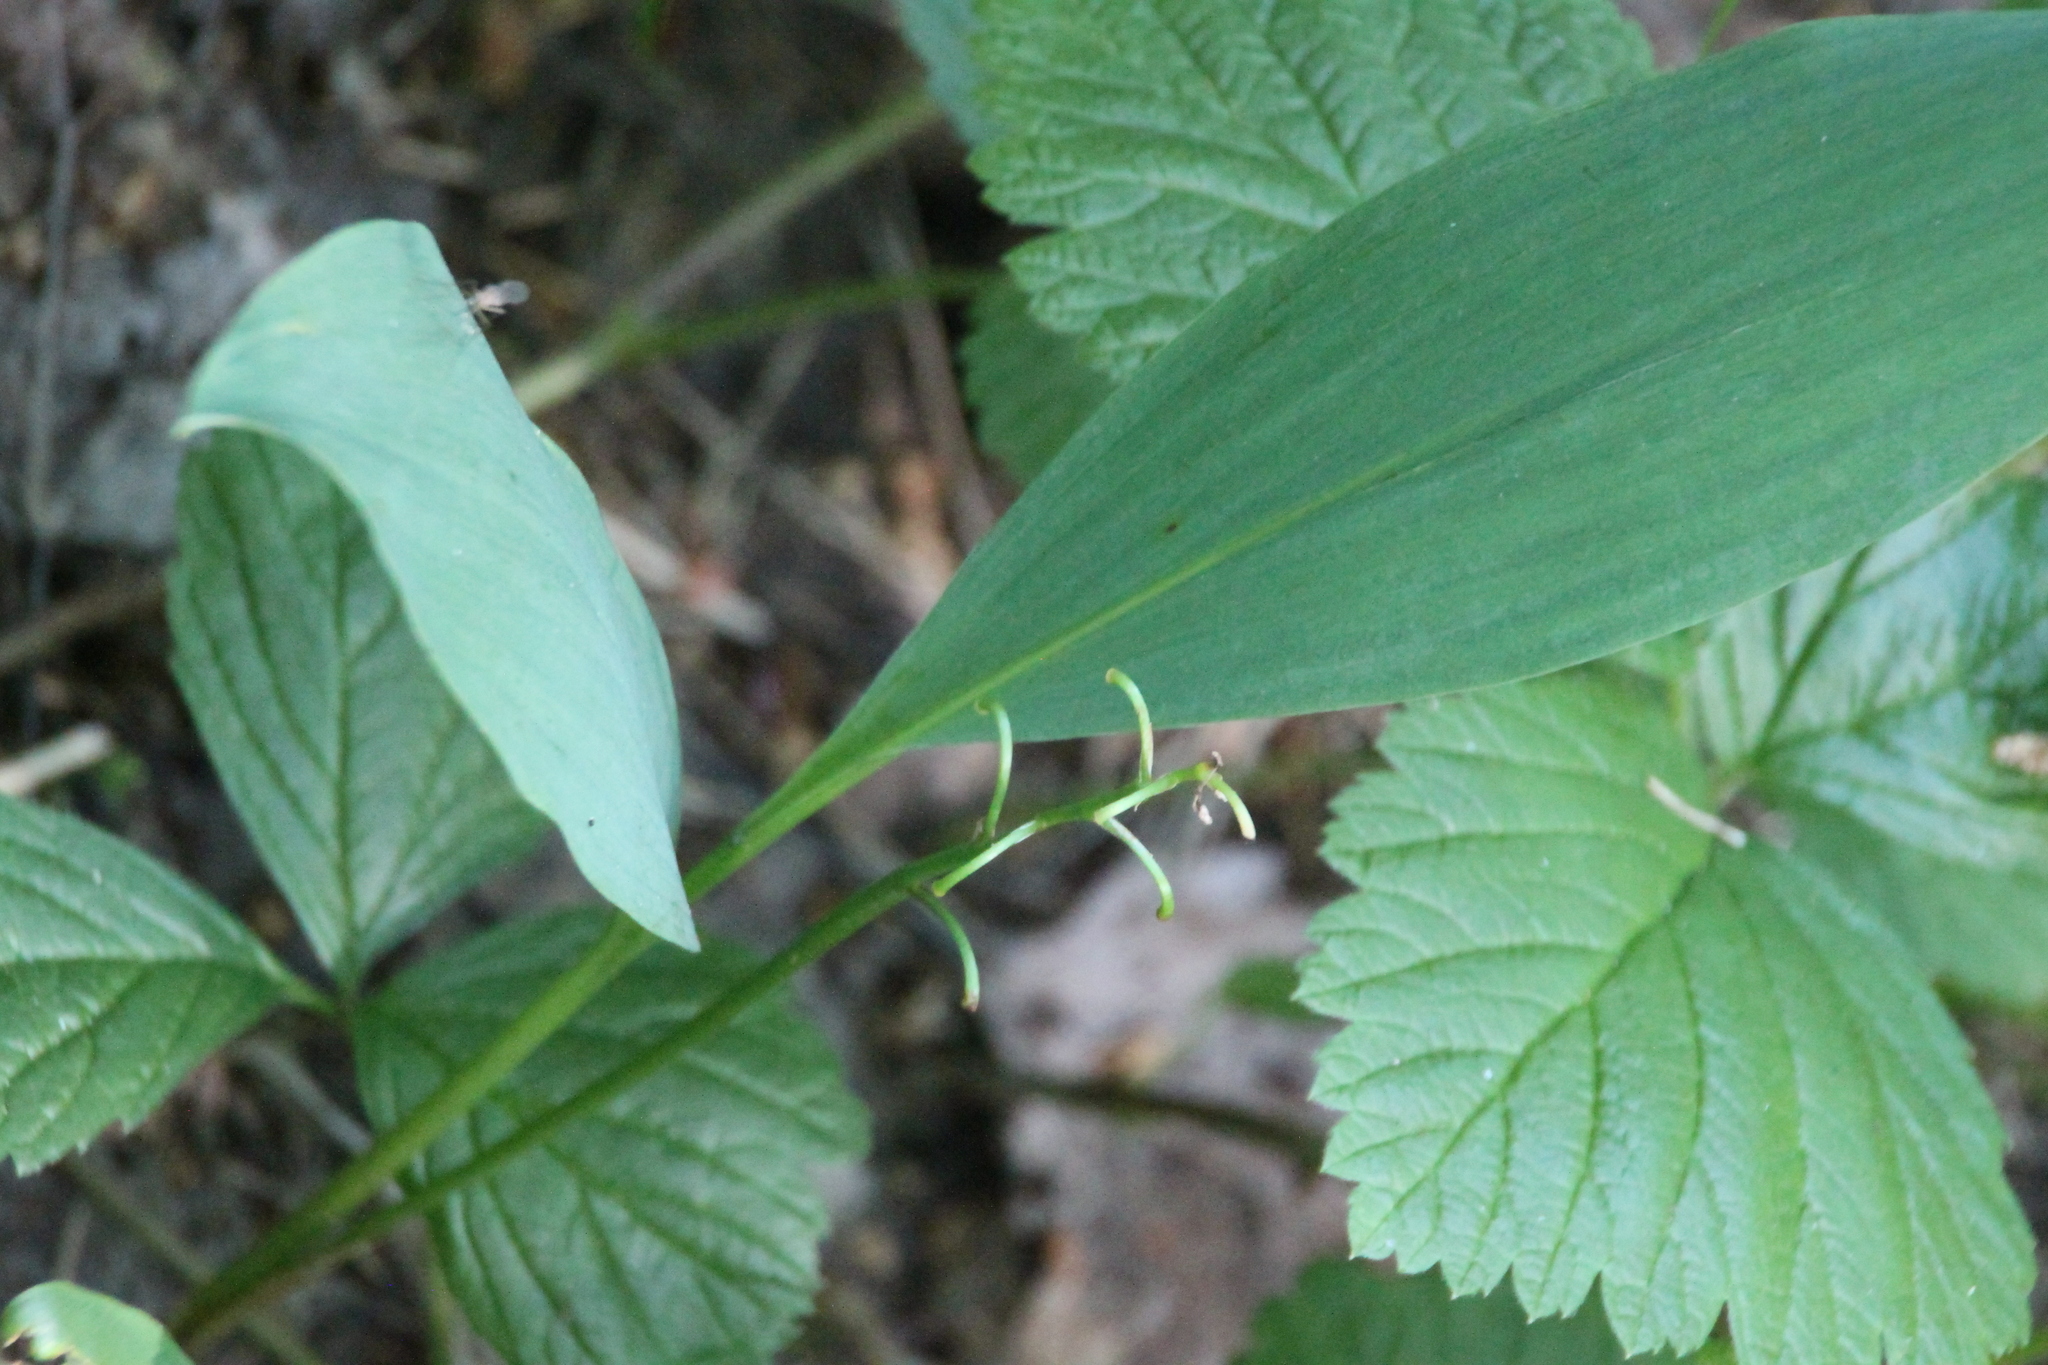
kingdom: Plantae
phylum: Tracheophyta
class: Liliopsida
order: Asparagales
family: Asparagaceae
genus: Convallaria
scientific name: Convallaria majalis
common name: Lily-of-the-valley
